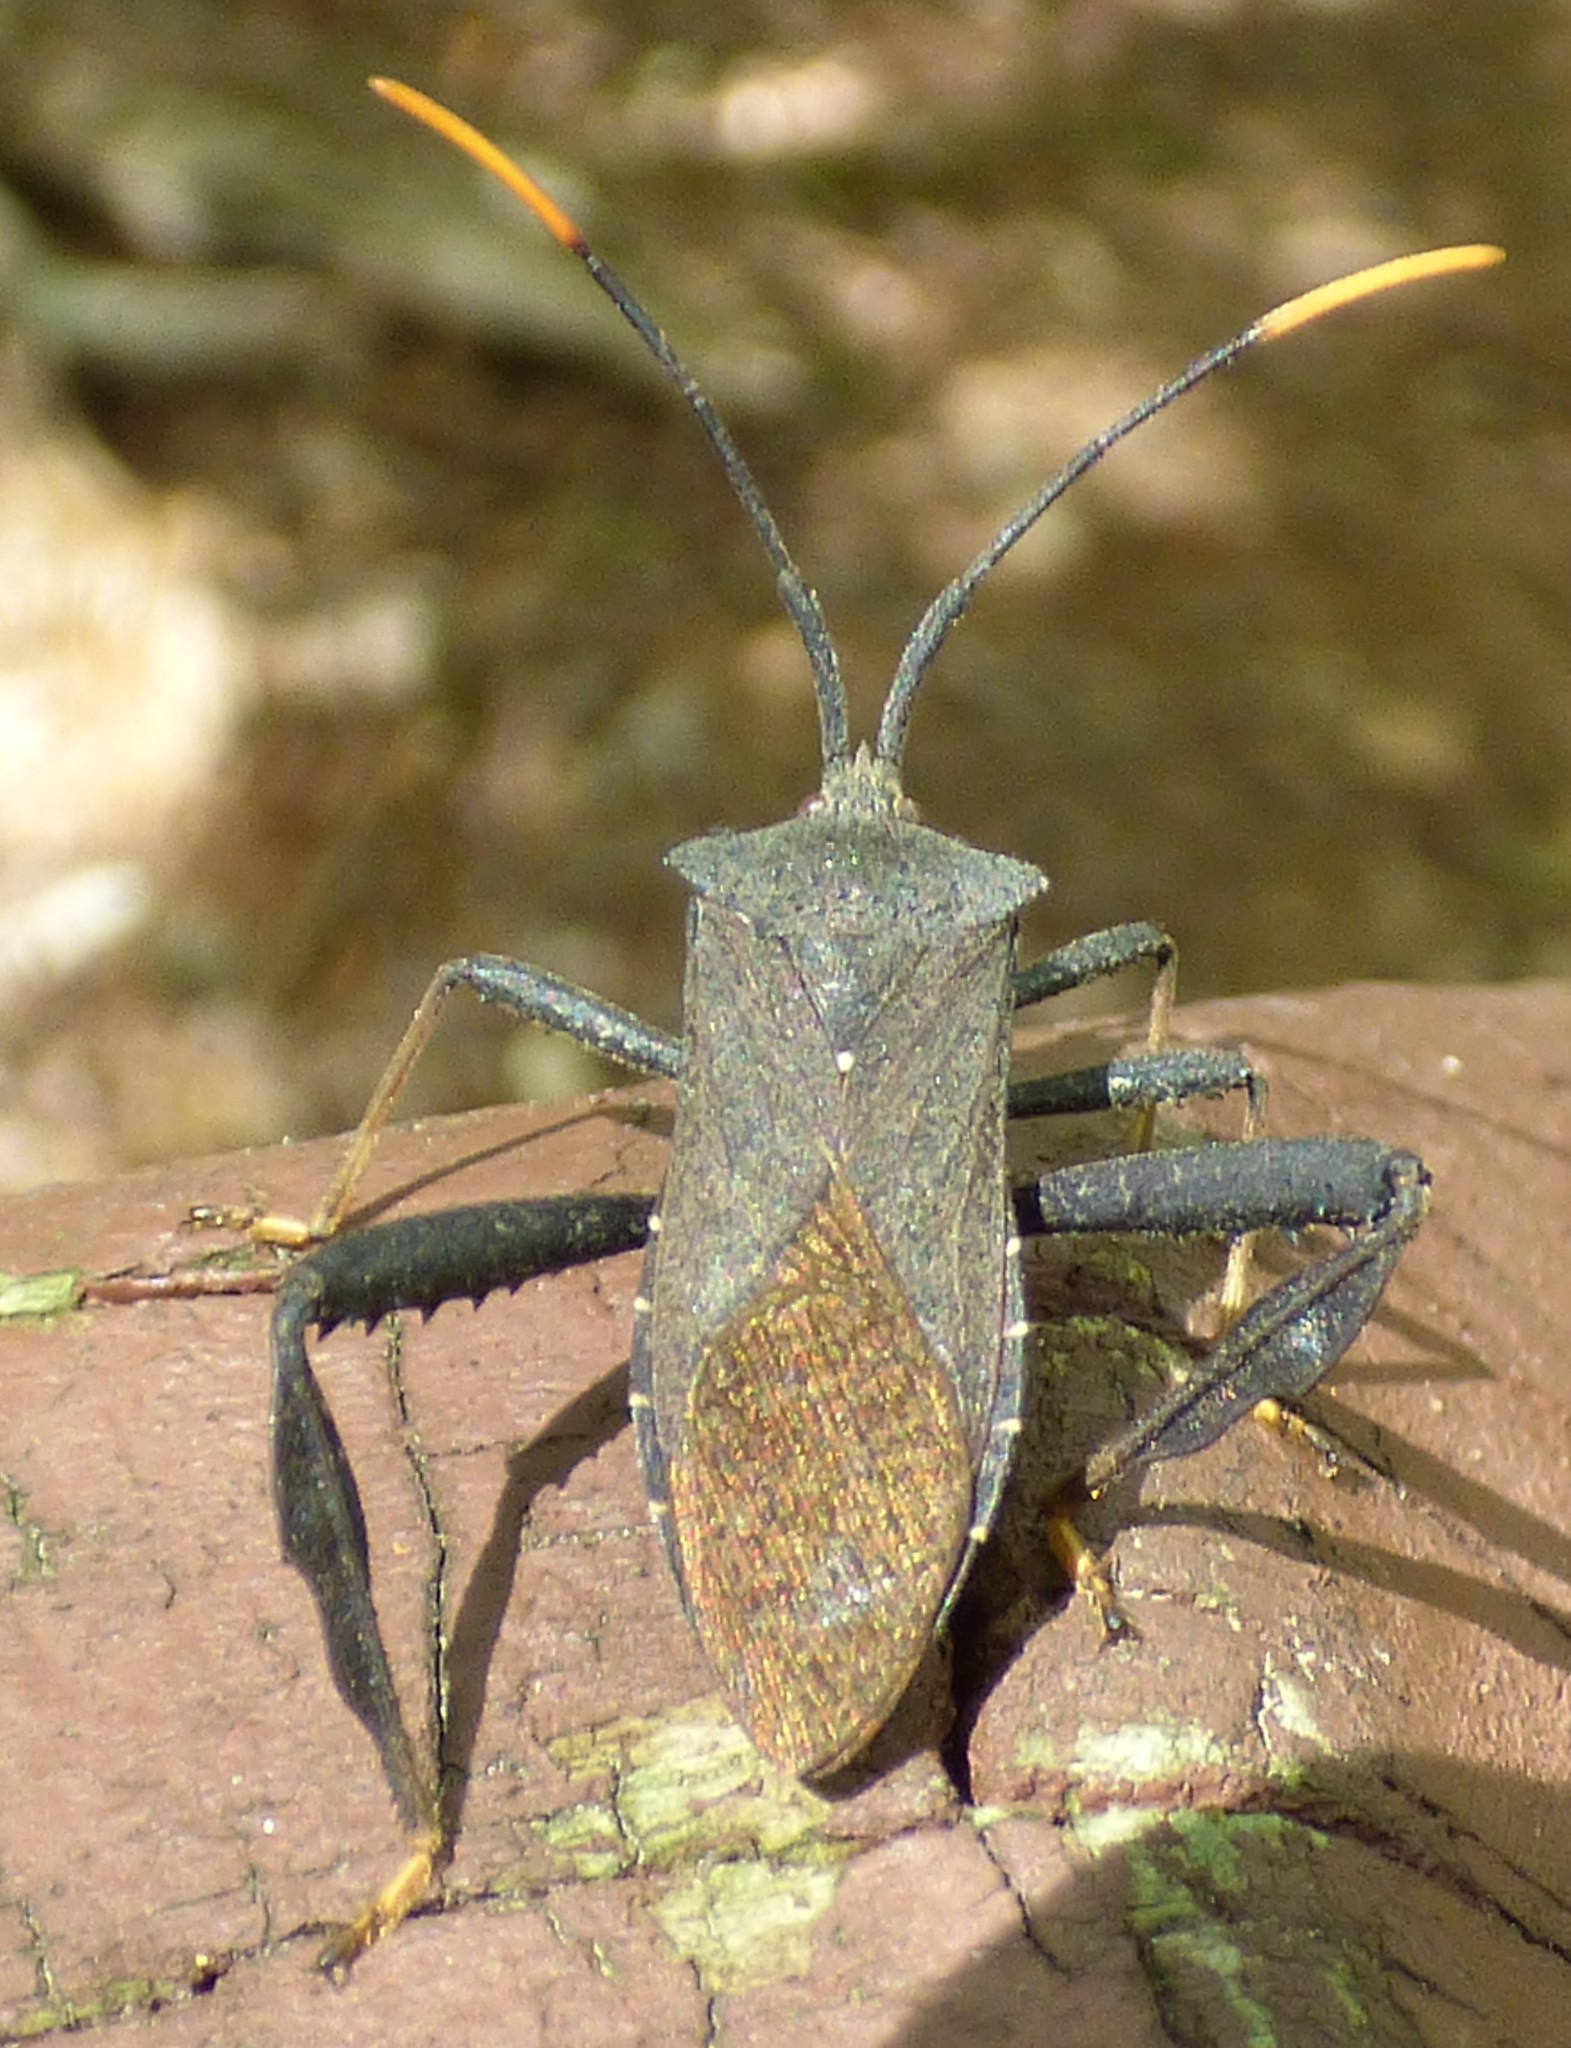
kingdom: Animalia
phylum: Arthropoda
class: Insecta
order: Hemiptera
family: Coreidae
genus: Acanthocephala
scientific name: Acanthocephala terminalis
